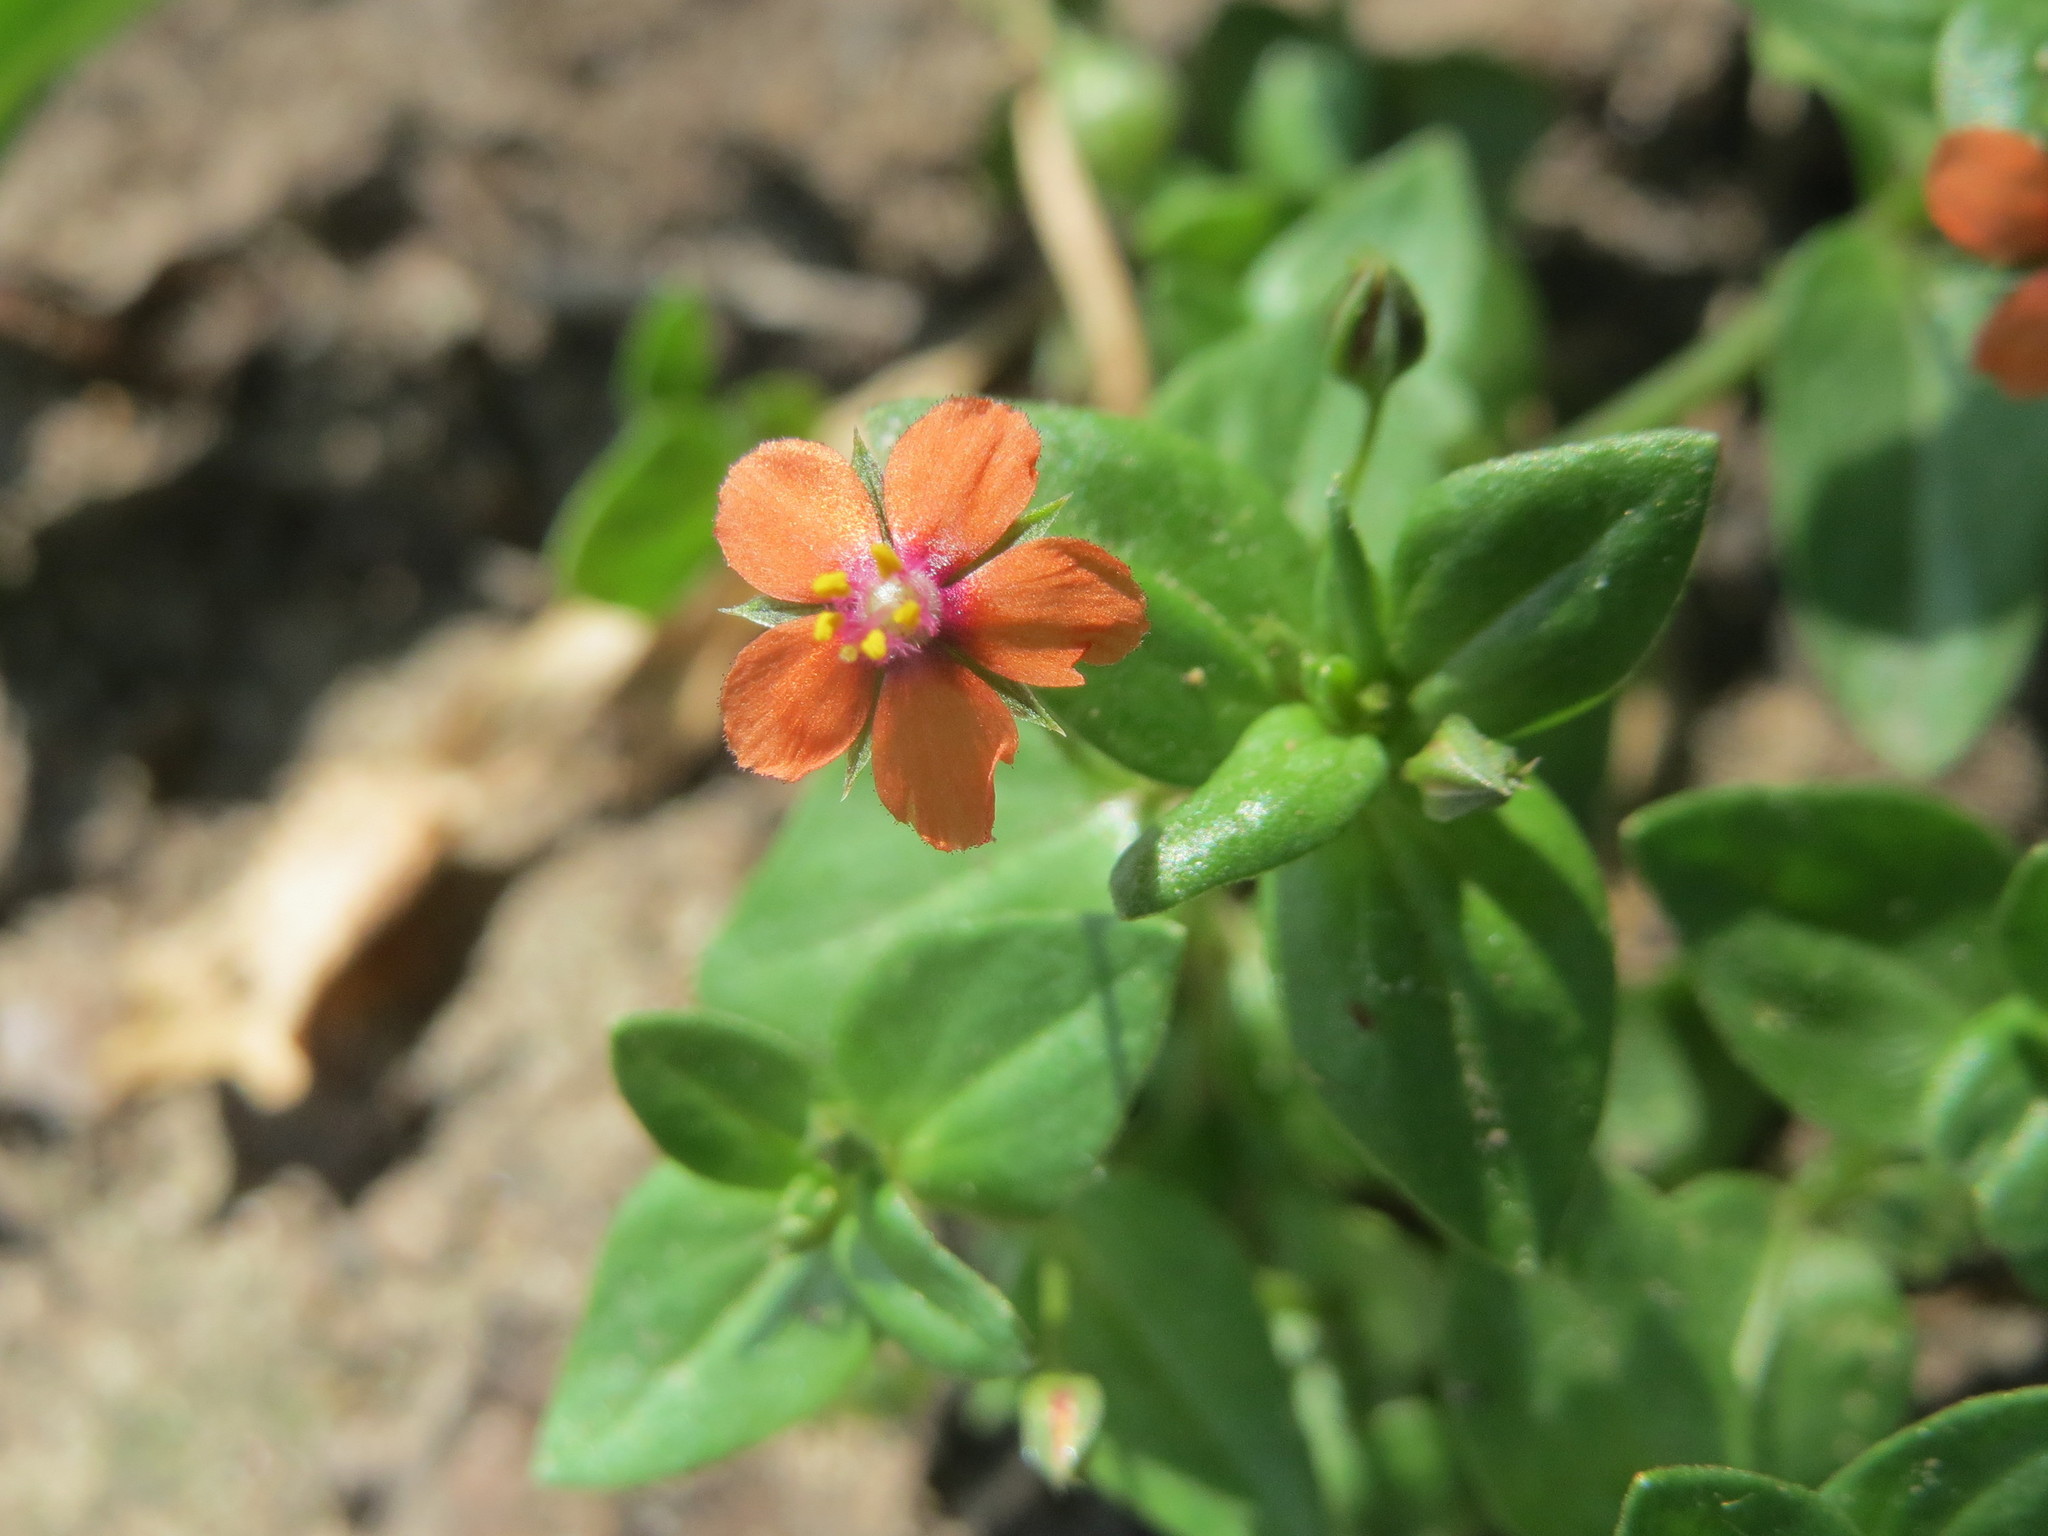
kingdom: Plantae
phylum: Tracheophyta
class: Magnoliopsida
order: Ericales
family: Primulaceae
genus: Lysimachia
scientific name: Lysimachia arvensis
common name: Scarlet pimpernel
